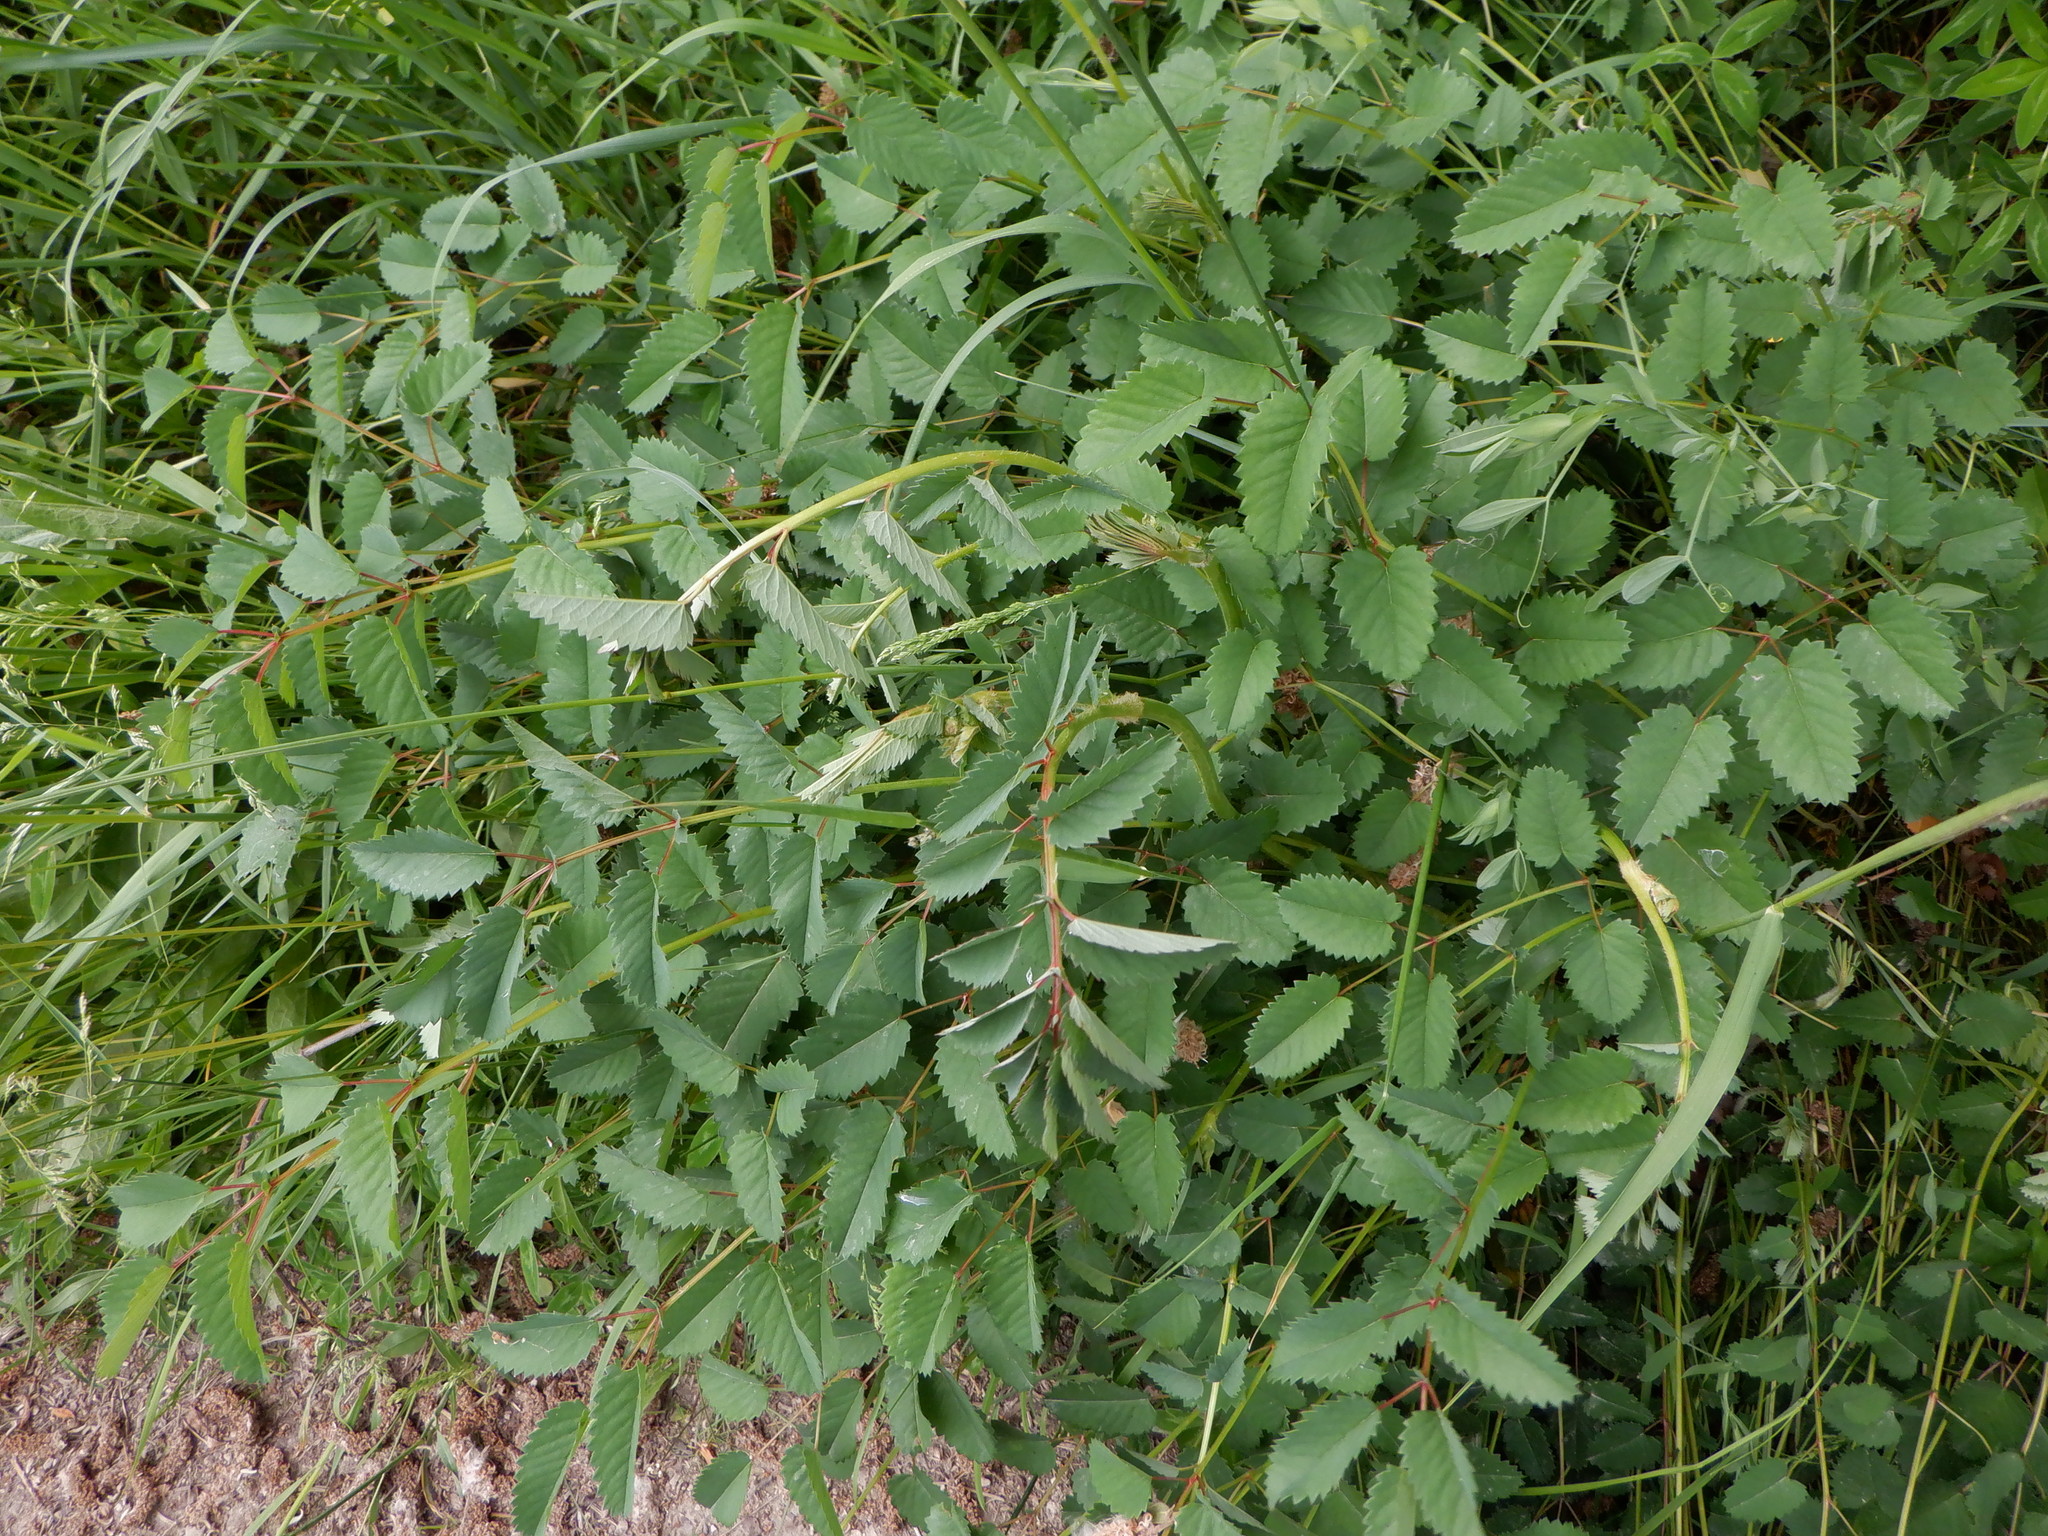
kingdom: Plantae
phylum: Tracheophyta
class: Magnoliopsida
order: Rosales
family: Rosaceae
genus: Sanguisorba
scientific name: Sanguisorba officinalis
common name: Great burnet
